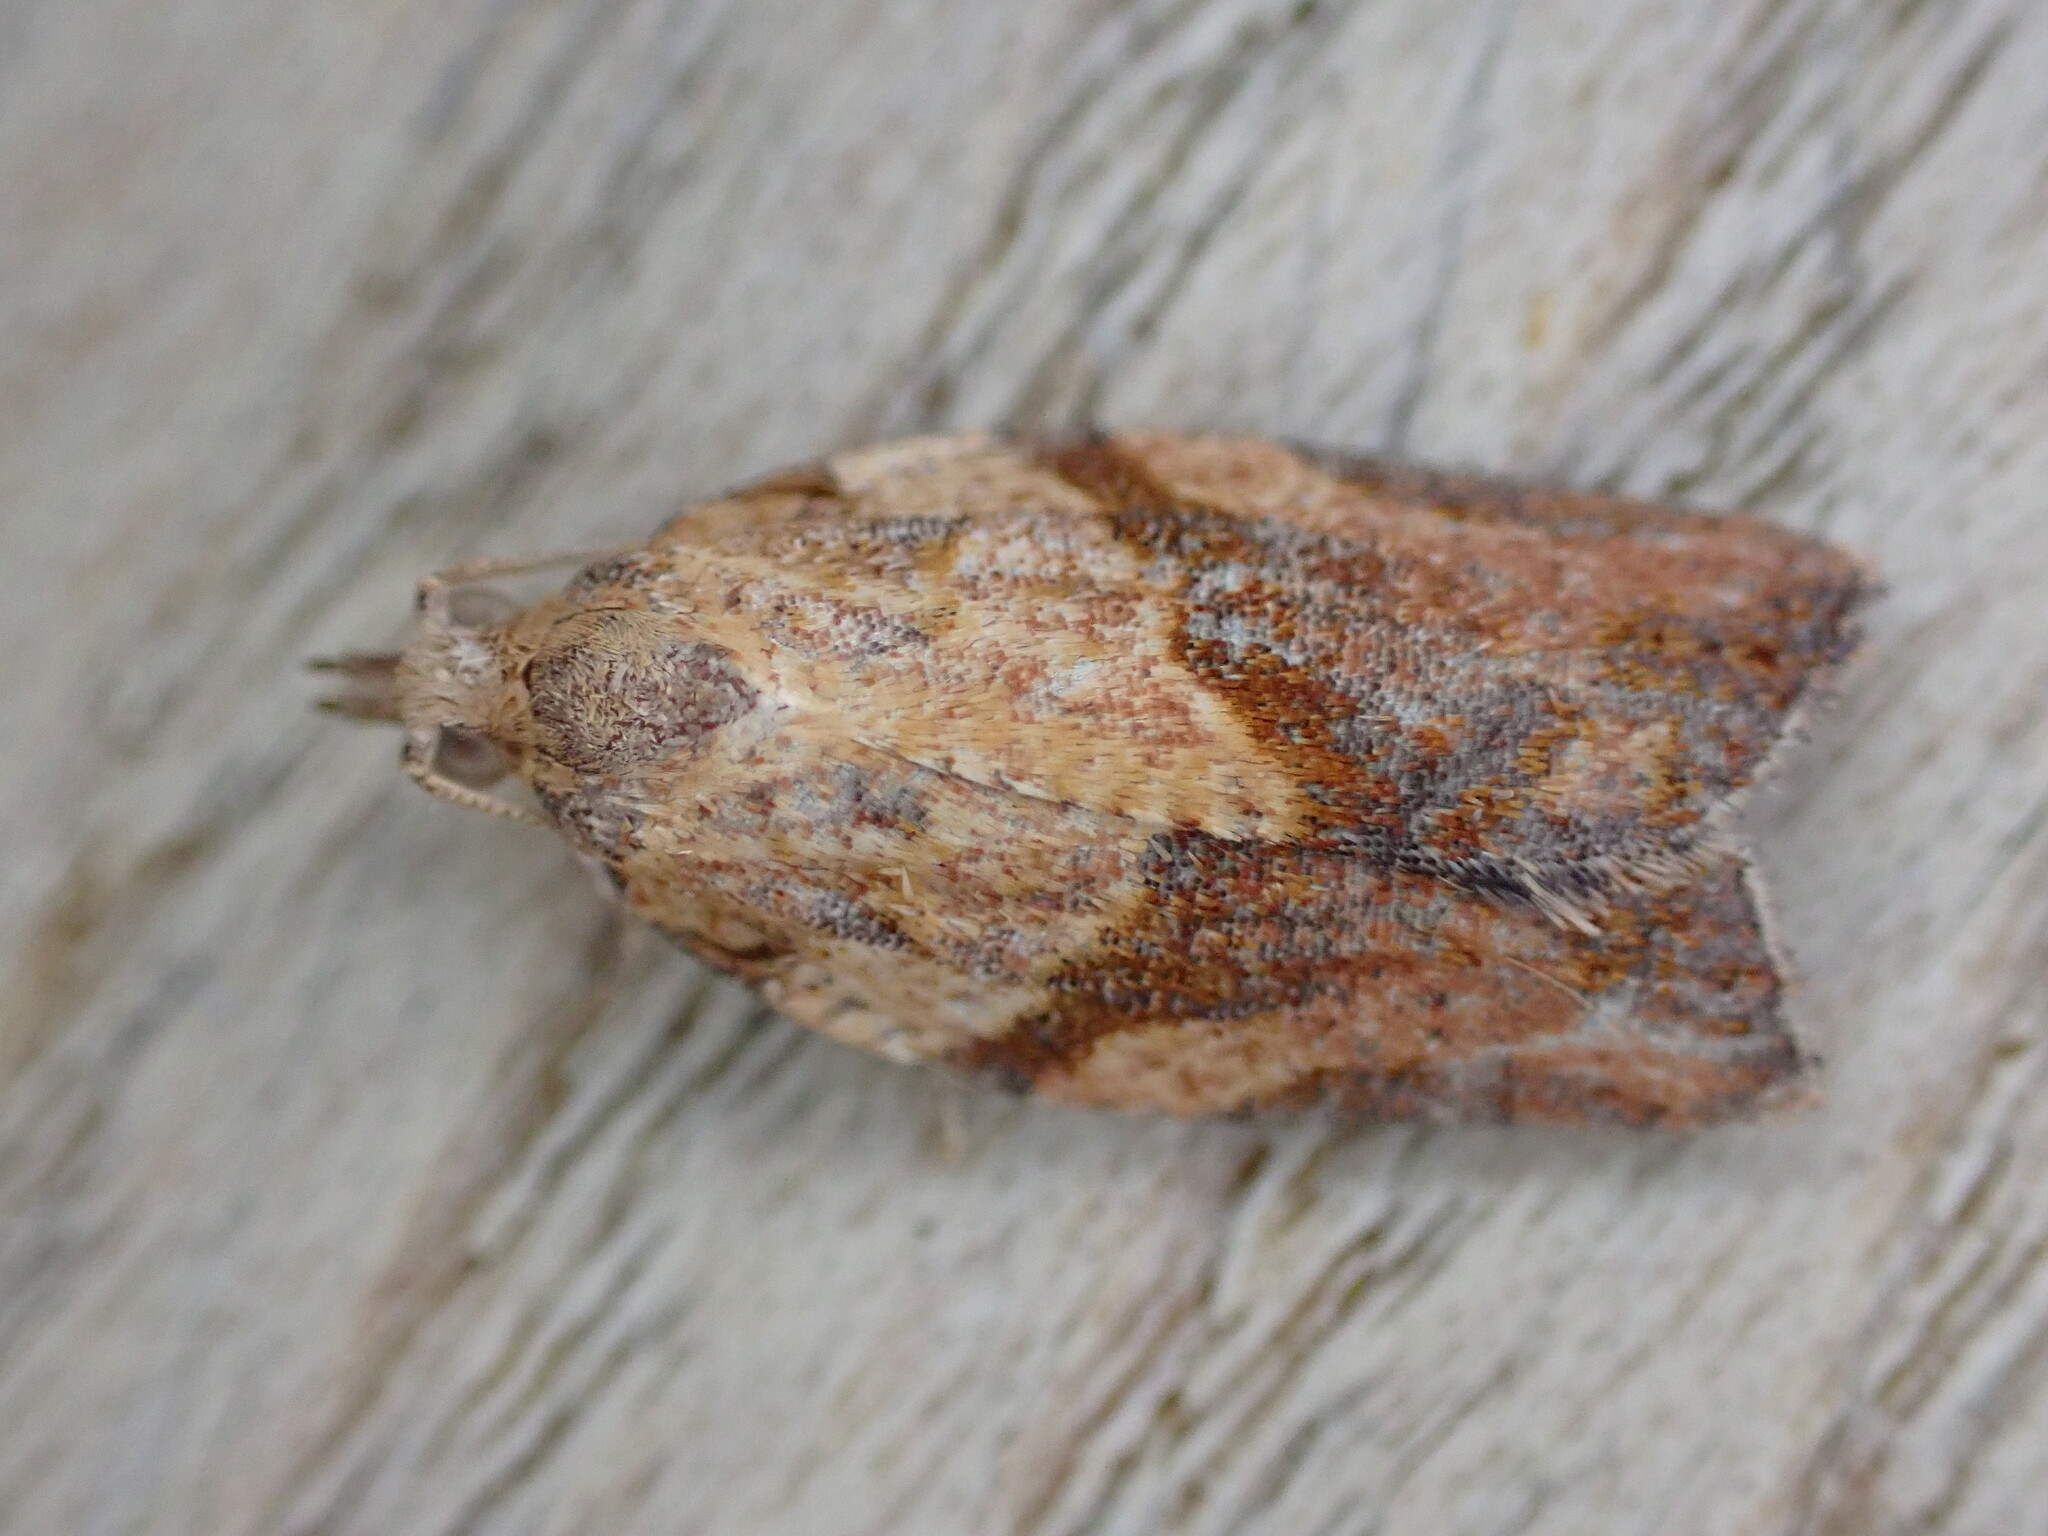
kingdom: Animalia
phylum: Arthropoda
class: Insecta
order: Lepidoptera
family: Tortricidae
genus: Epiphyas
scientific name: Epiphyas postvittana
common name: Light brown apple moth
